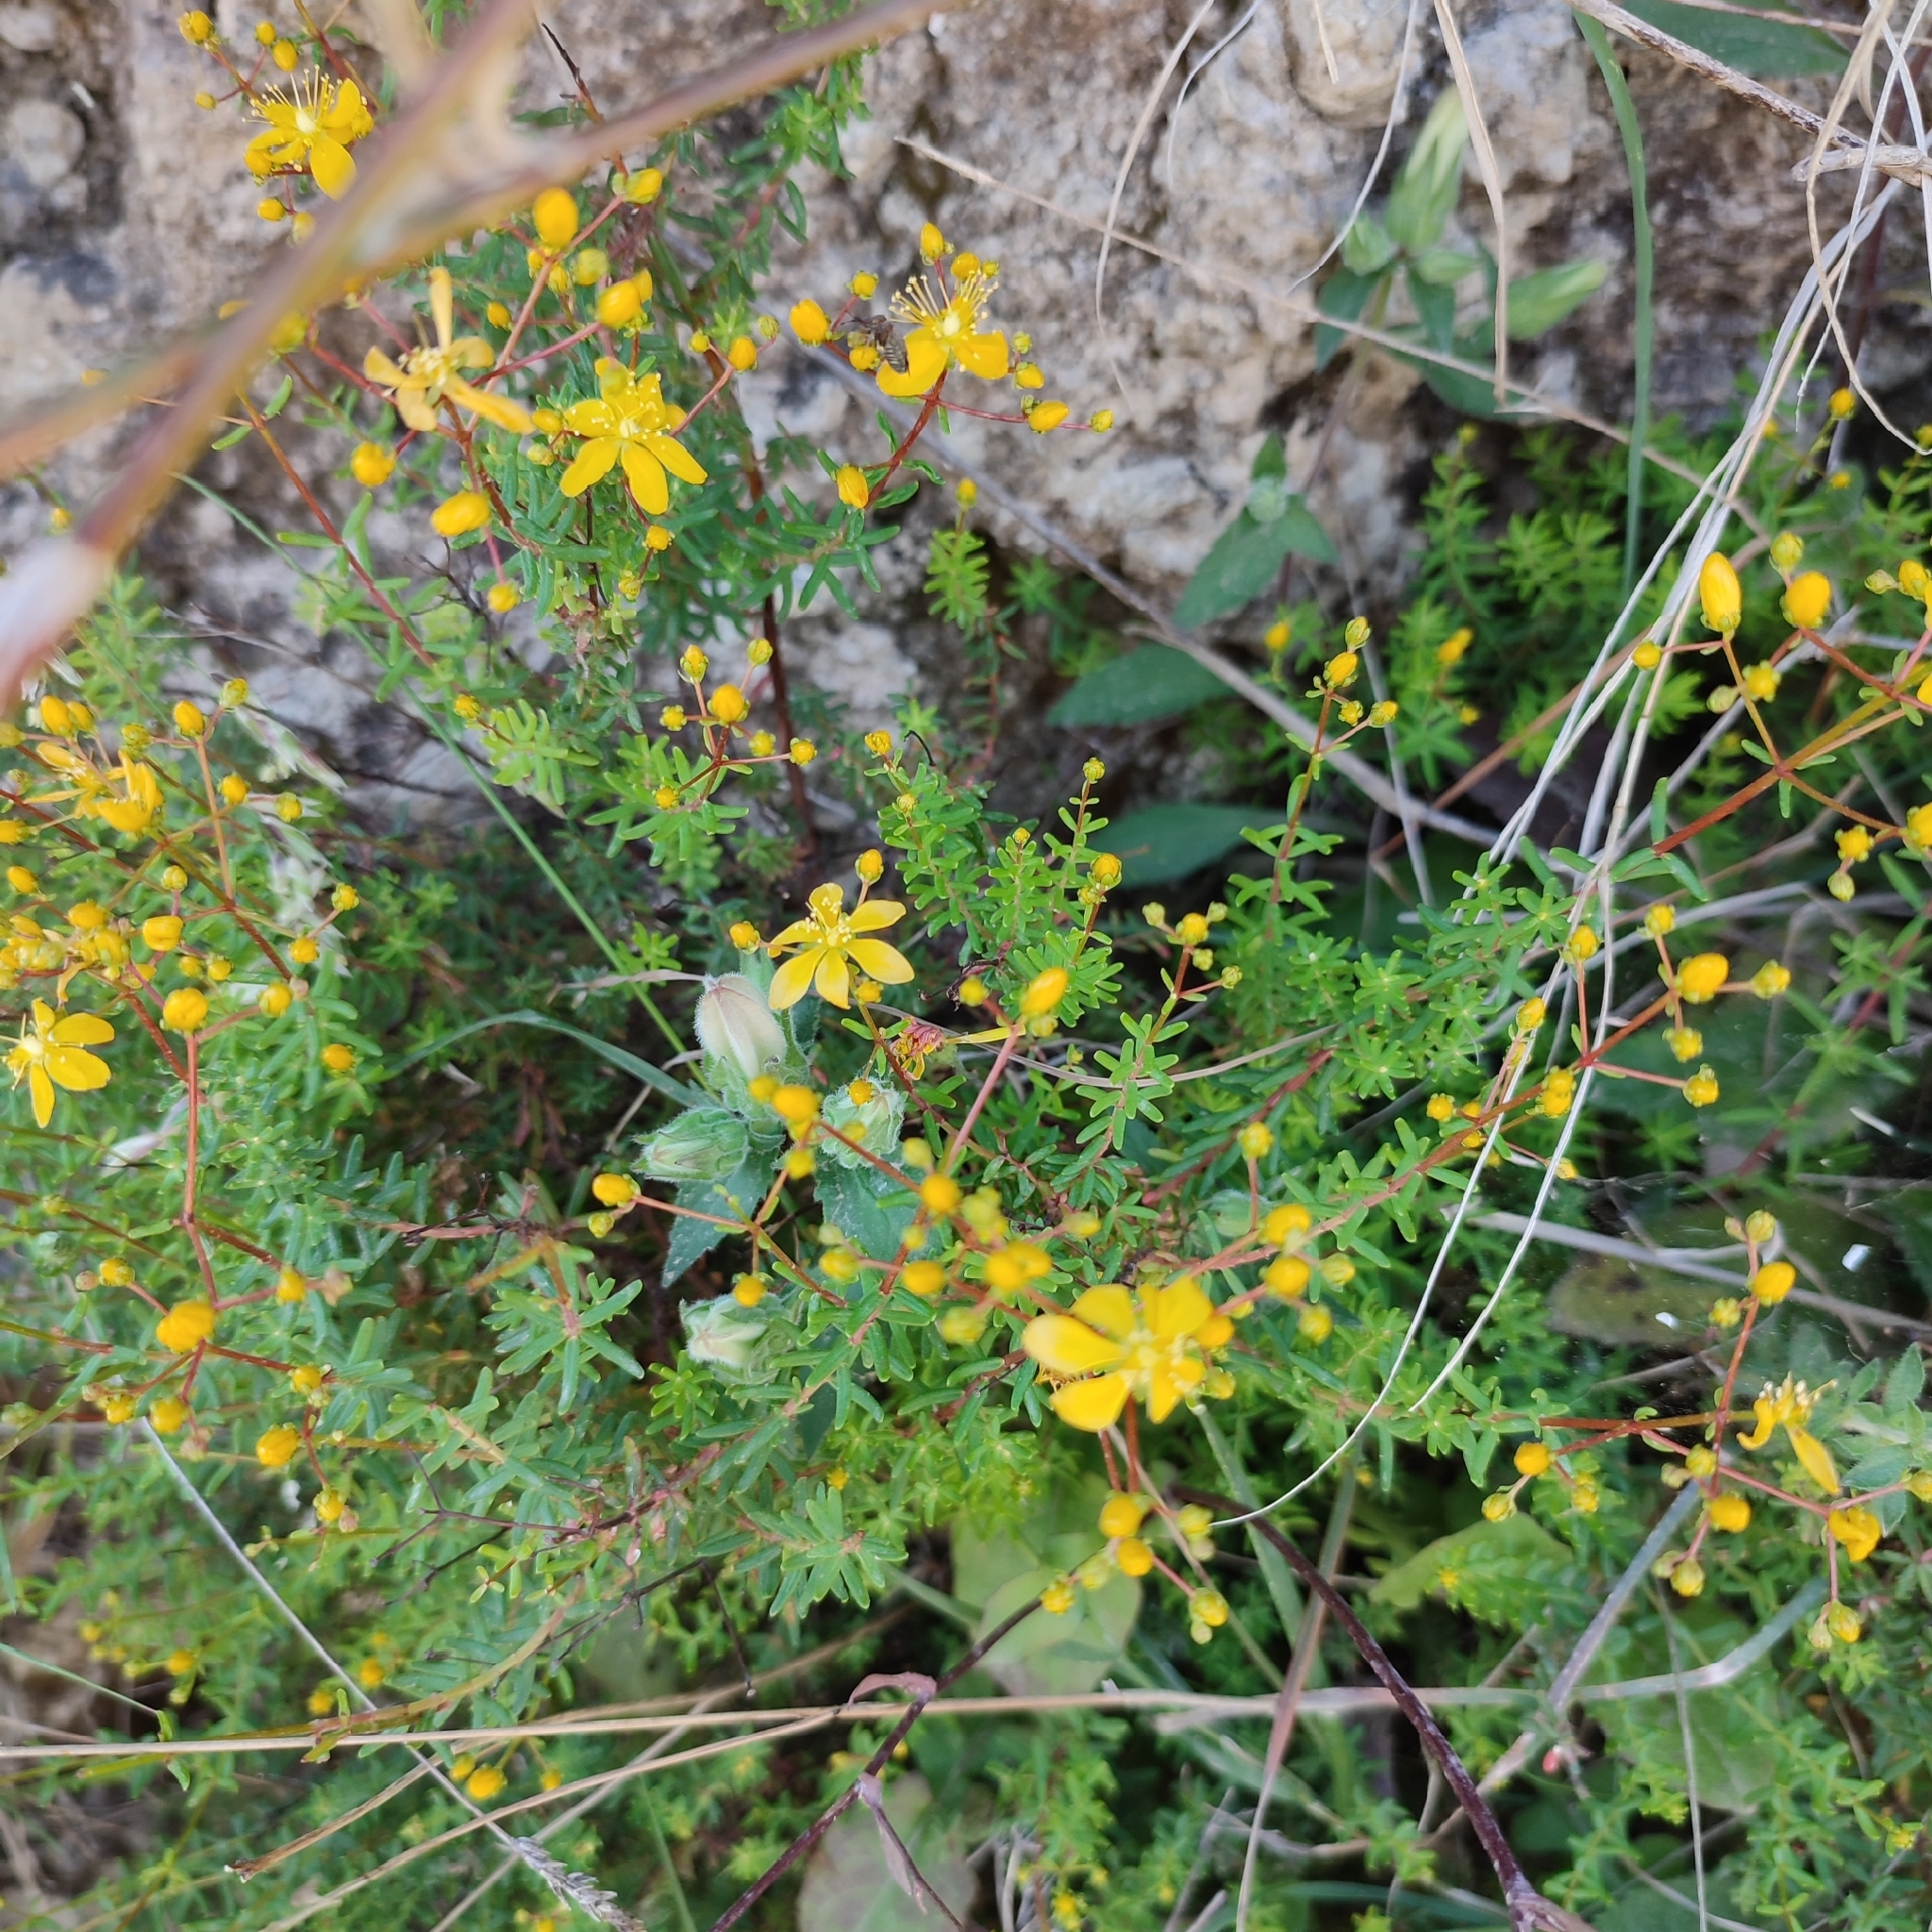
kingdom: Plantae
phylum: Tracheophyta
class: Magnoliopsida
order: Malpighiales
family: Hypericaceae
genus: Hypericum
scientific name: Hypericum empetrifolium
